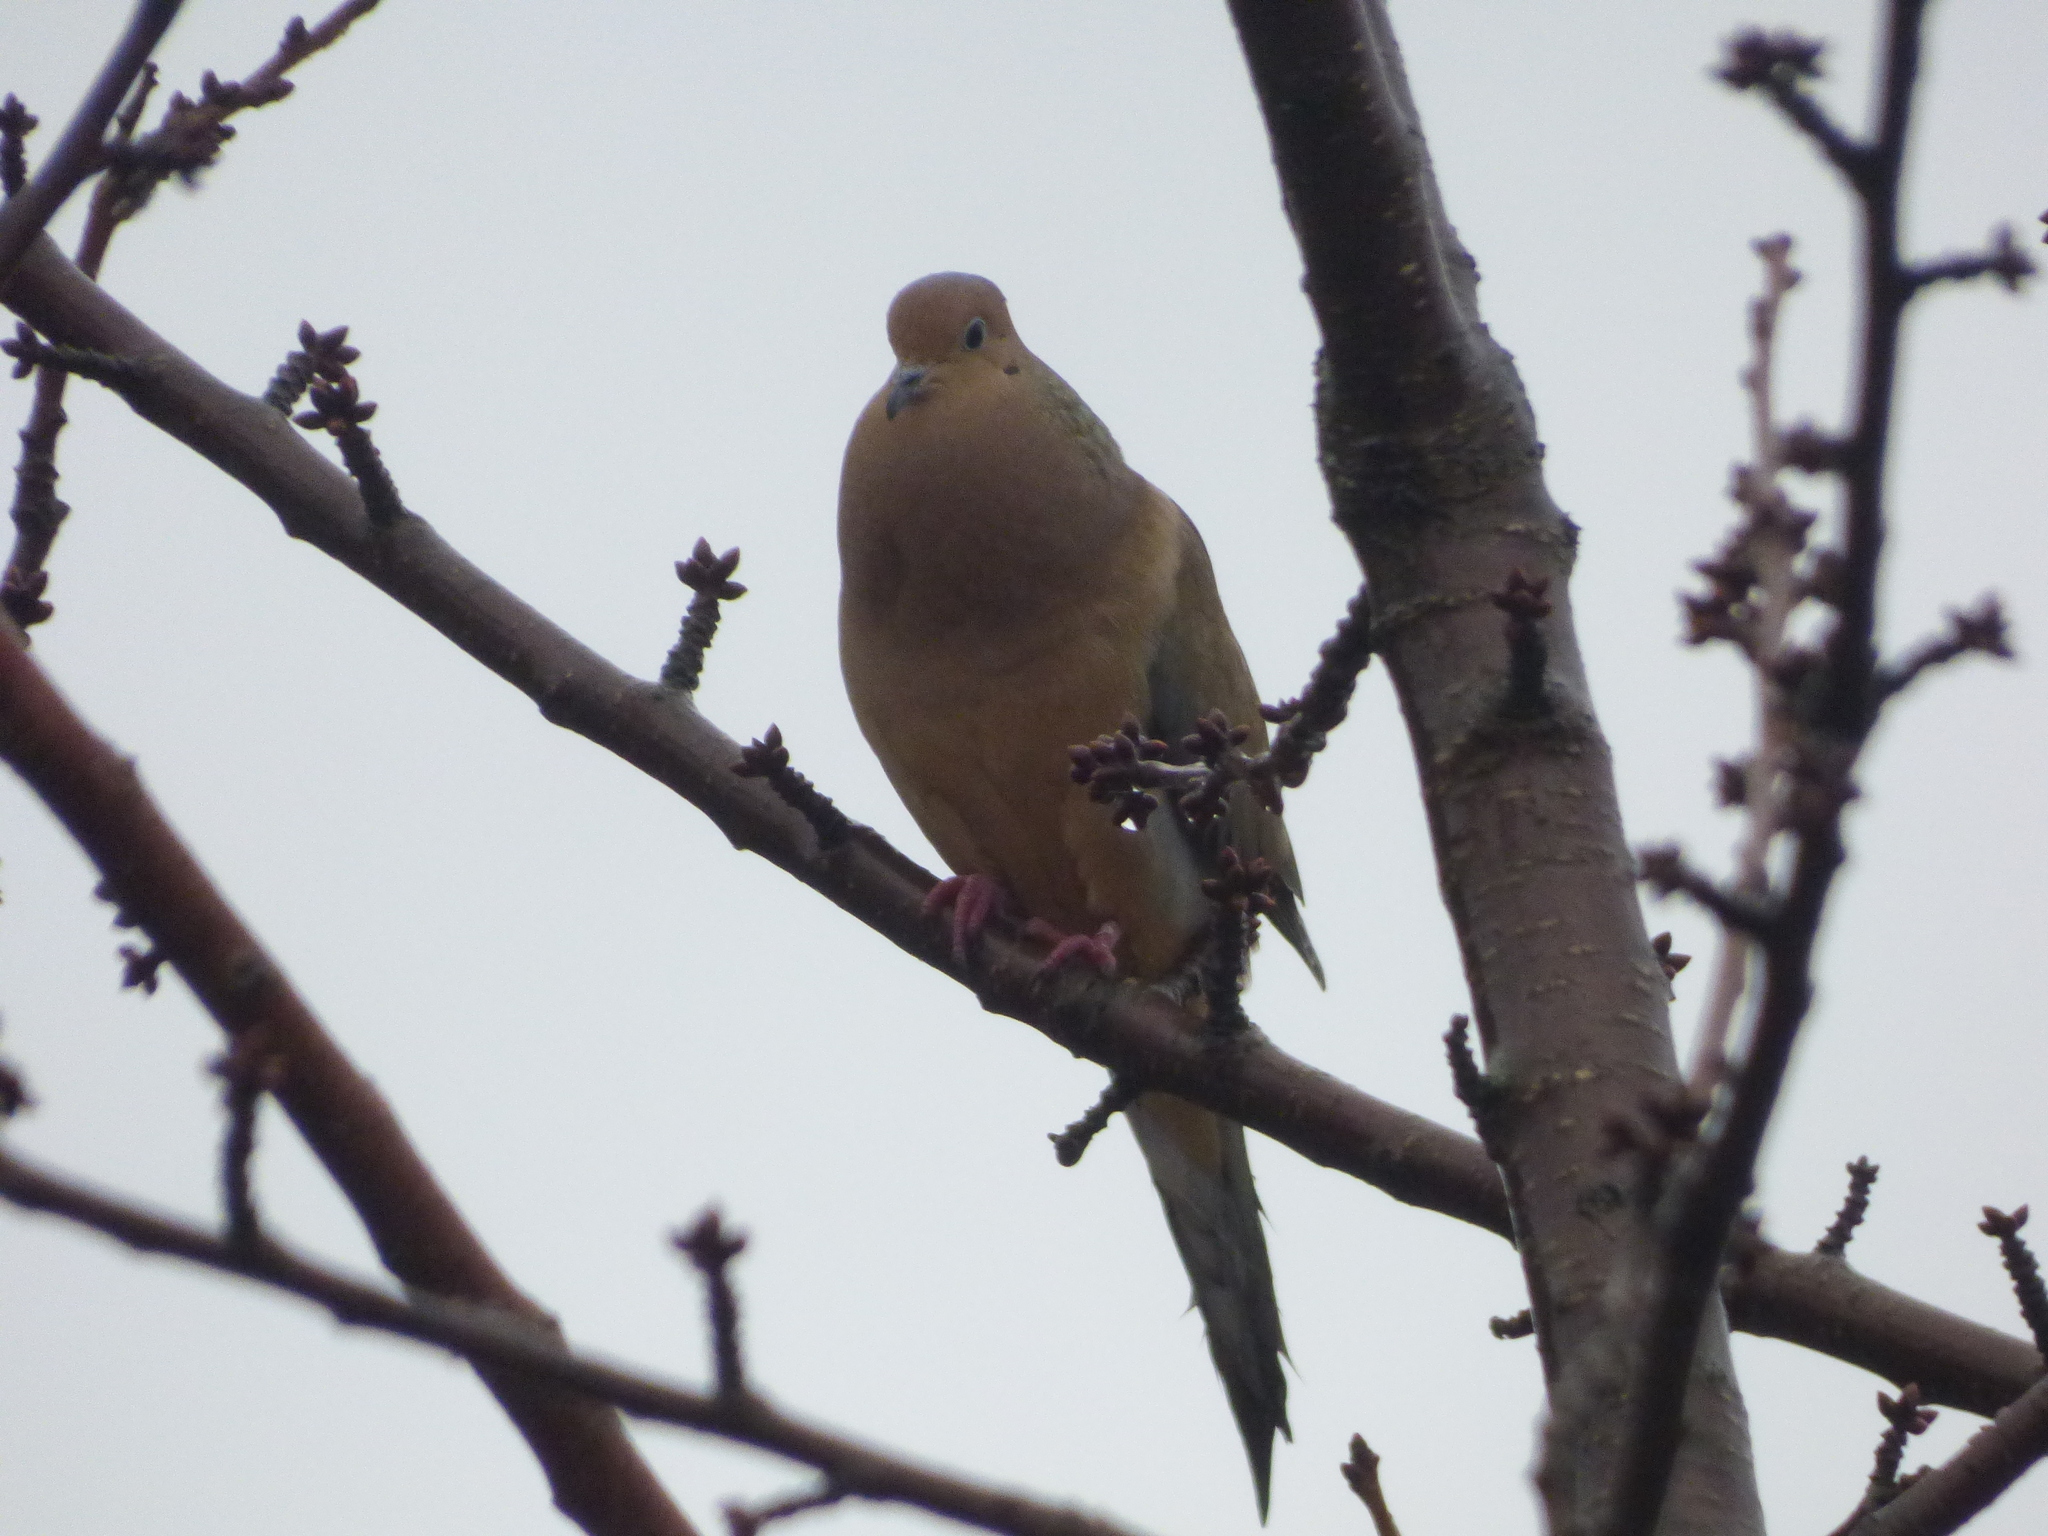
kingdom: Animalia
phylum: Chordata
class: Aves
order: Columbiformes
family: Columbidae
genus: Zenaida
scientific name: Zenaida macroura
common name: Mourning dove
